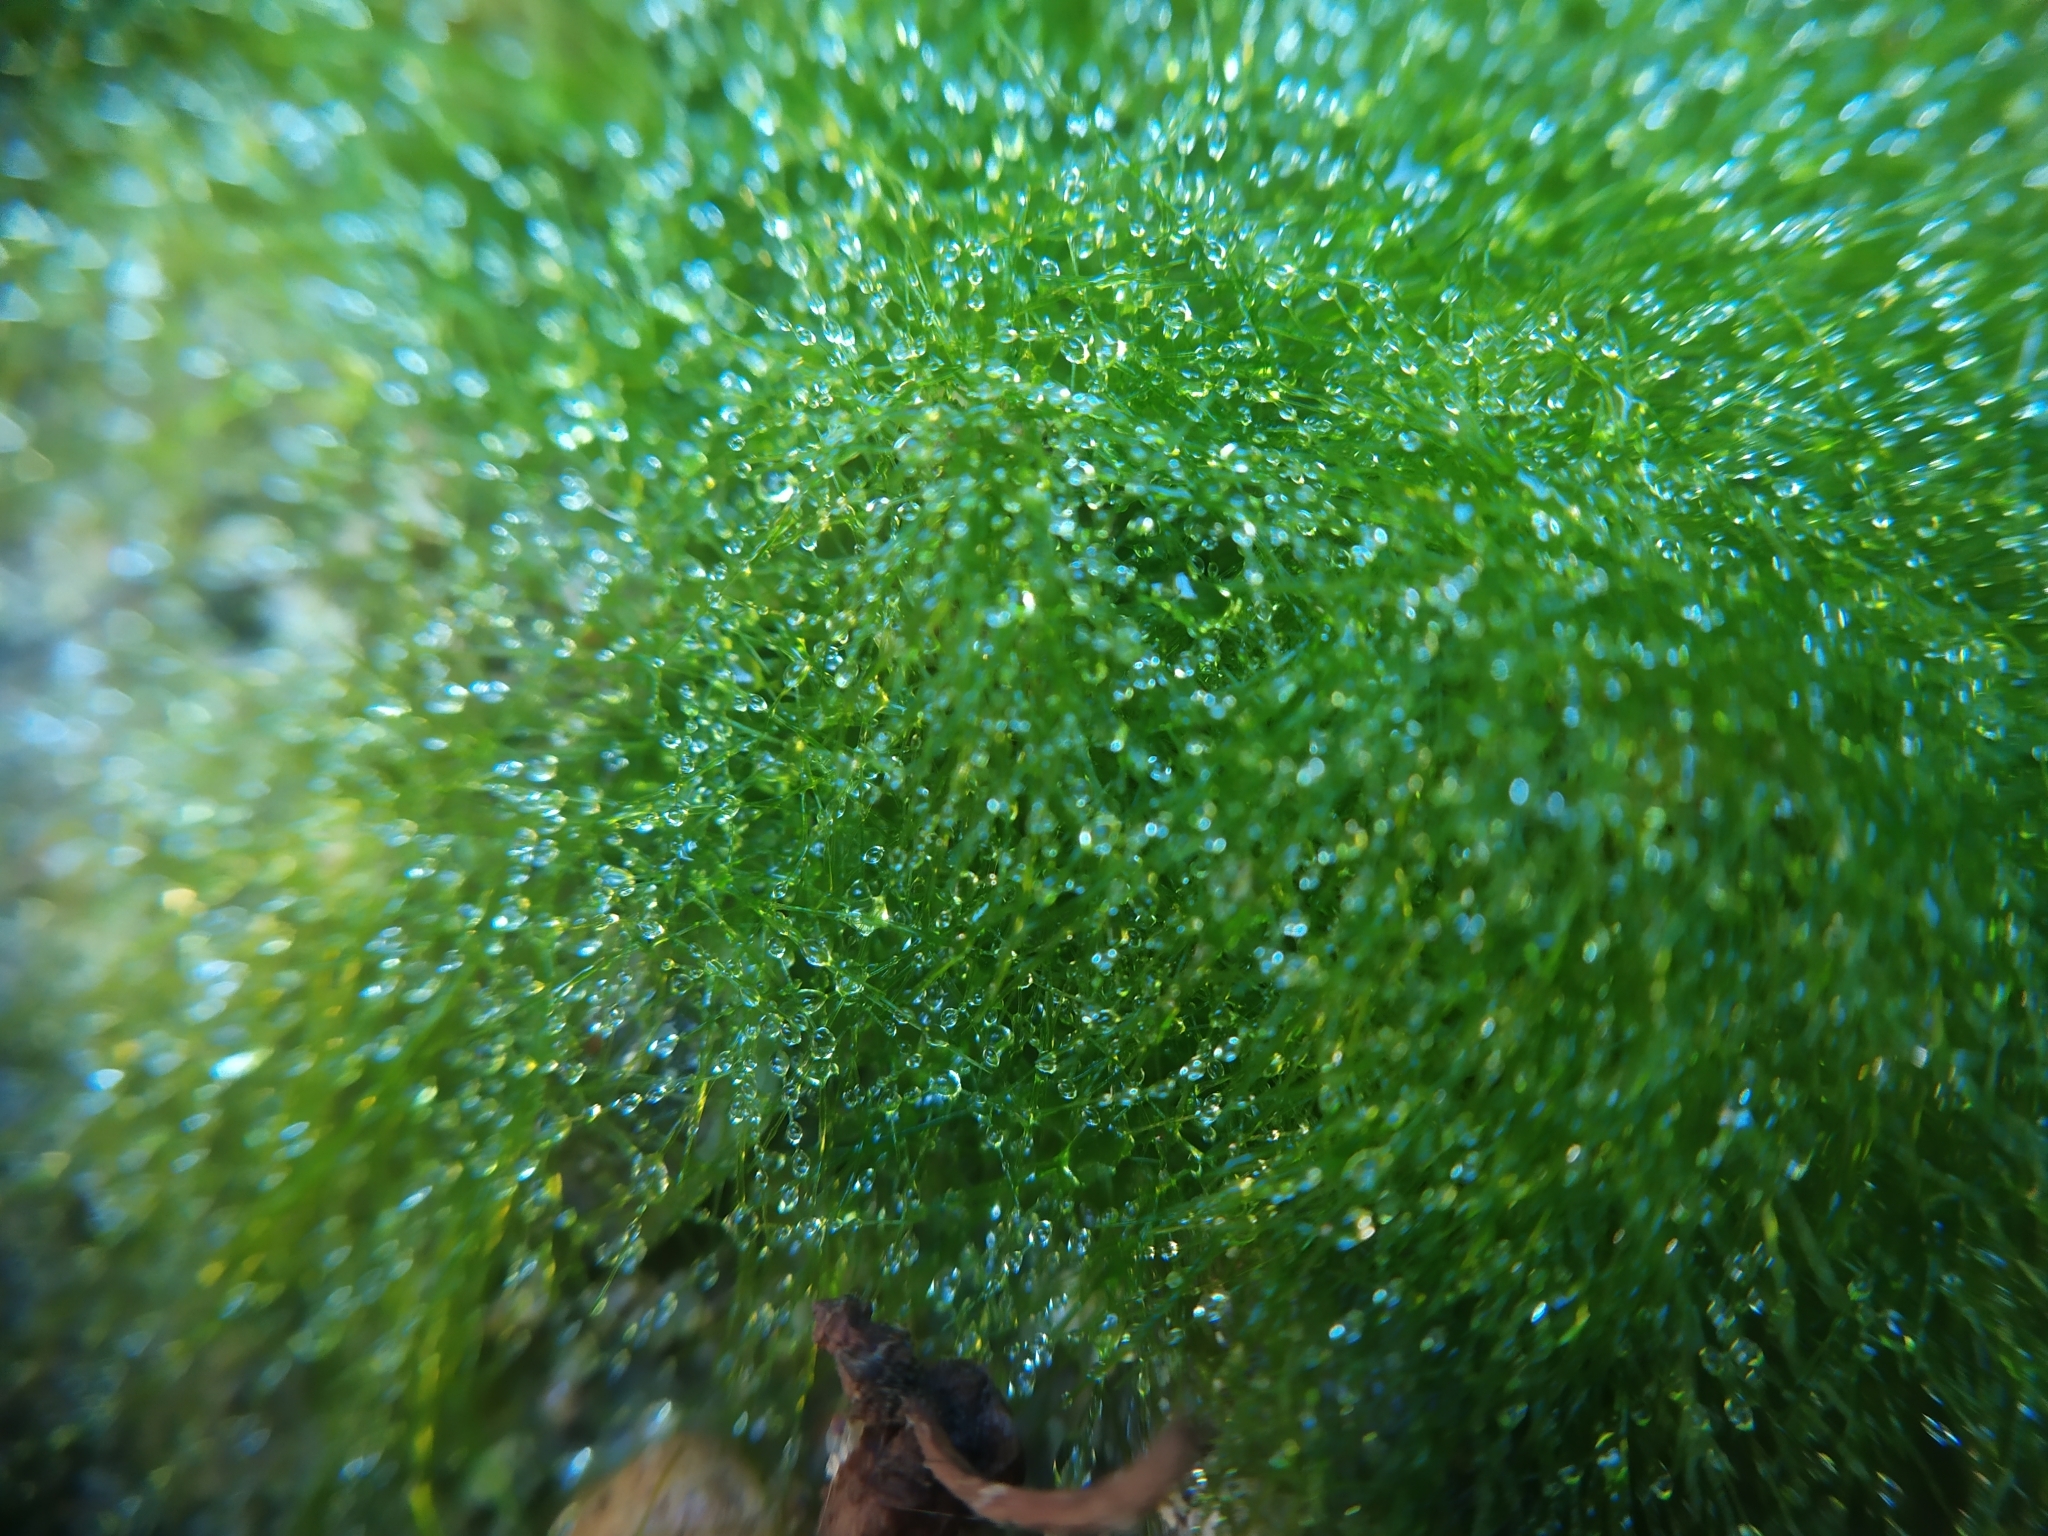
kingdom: Chromista
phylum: Ochrophyta
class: Xanthophyceae
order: Vaucheriales
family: Vaucheriaceae
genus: Vaucheria
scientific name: Vaucheria
